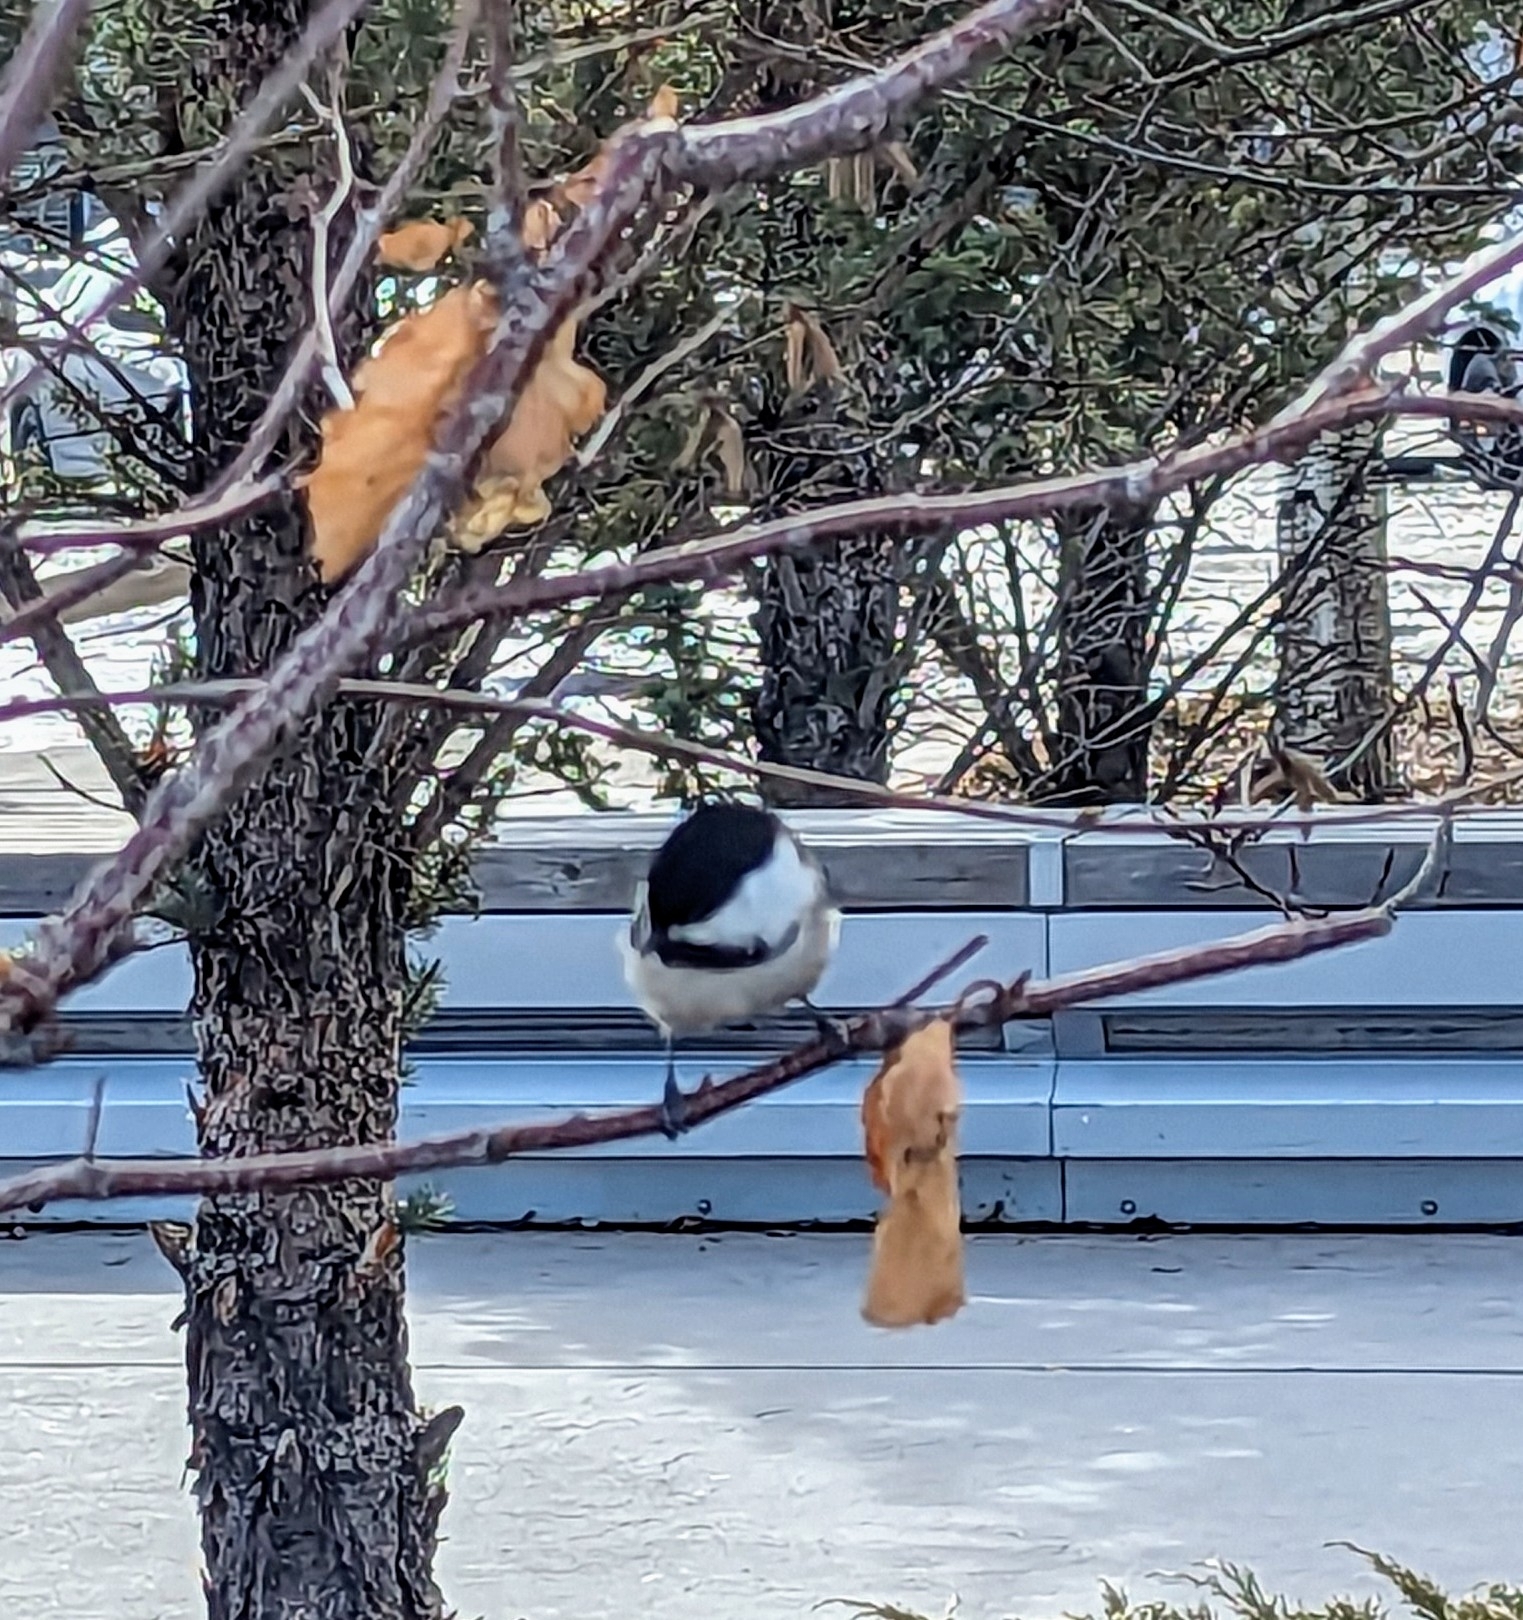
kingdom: Animalia
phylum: Chordata
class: Aves
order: Passeriformes
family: Paridae
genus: Poecile
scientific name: Poecile atricapillus
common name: Black-capped chickadee
